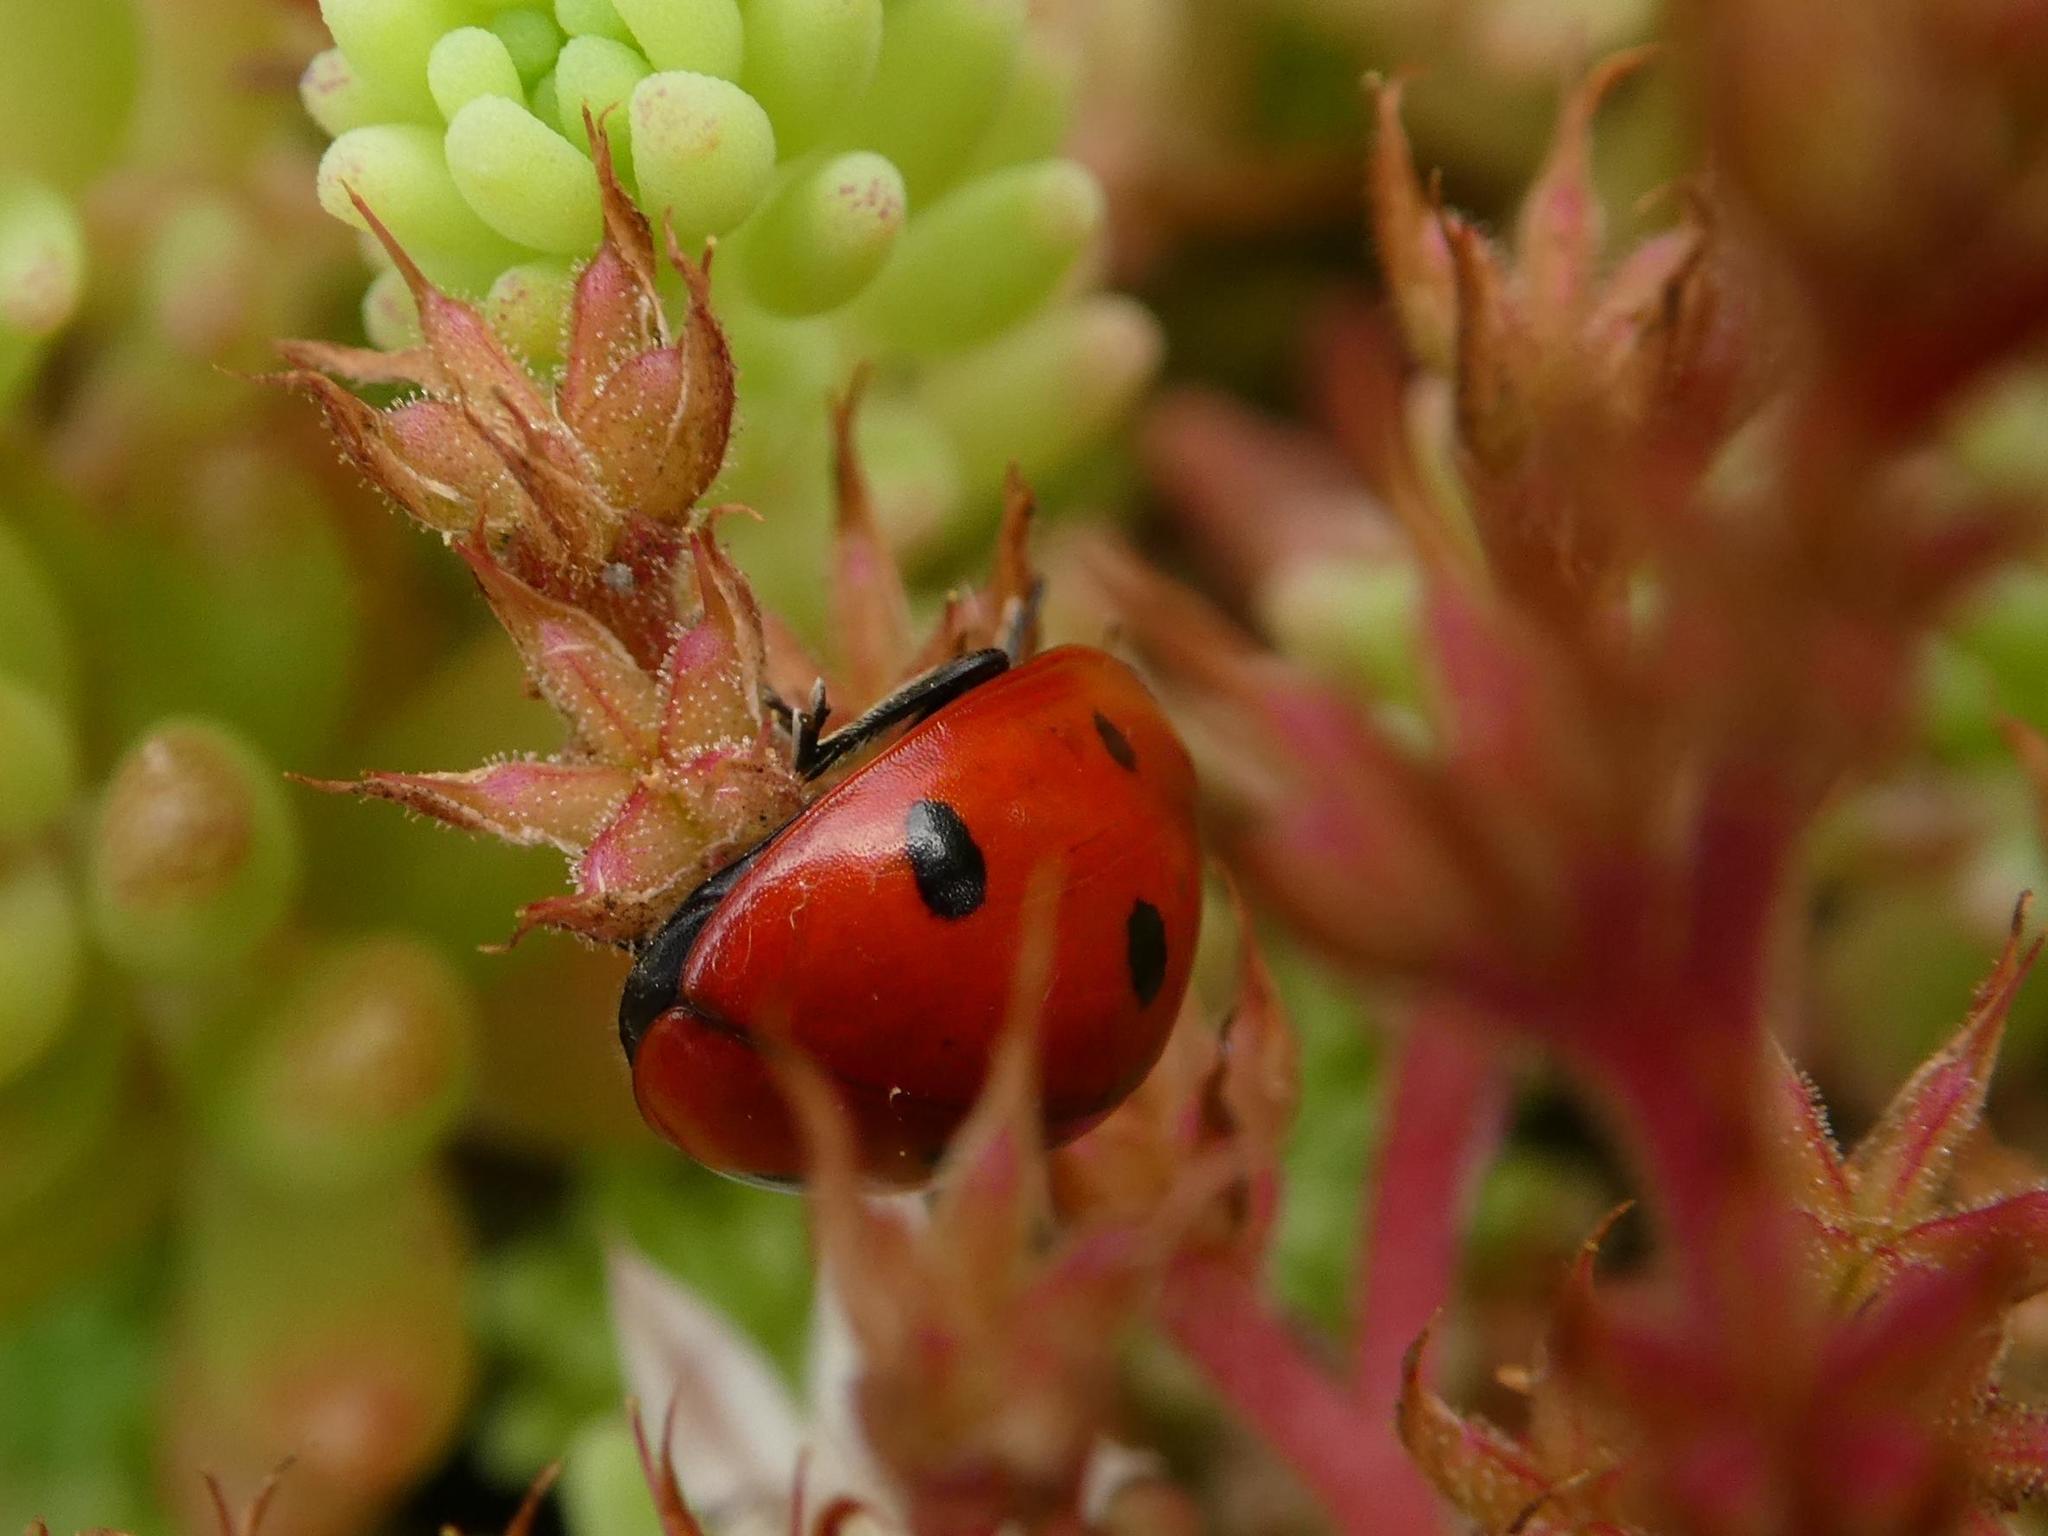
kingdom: Animalia
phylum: Arthropoda
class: Insecta
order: Coleoptera
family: Coccinellidae
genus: Coccinella
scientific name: Coccinella septempunctata
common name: Sevenspotted lady beetle
